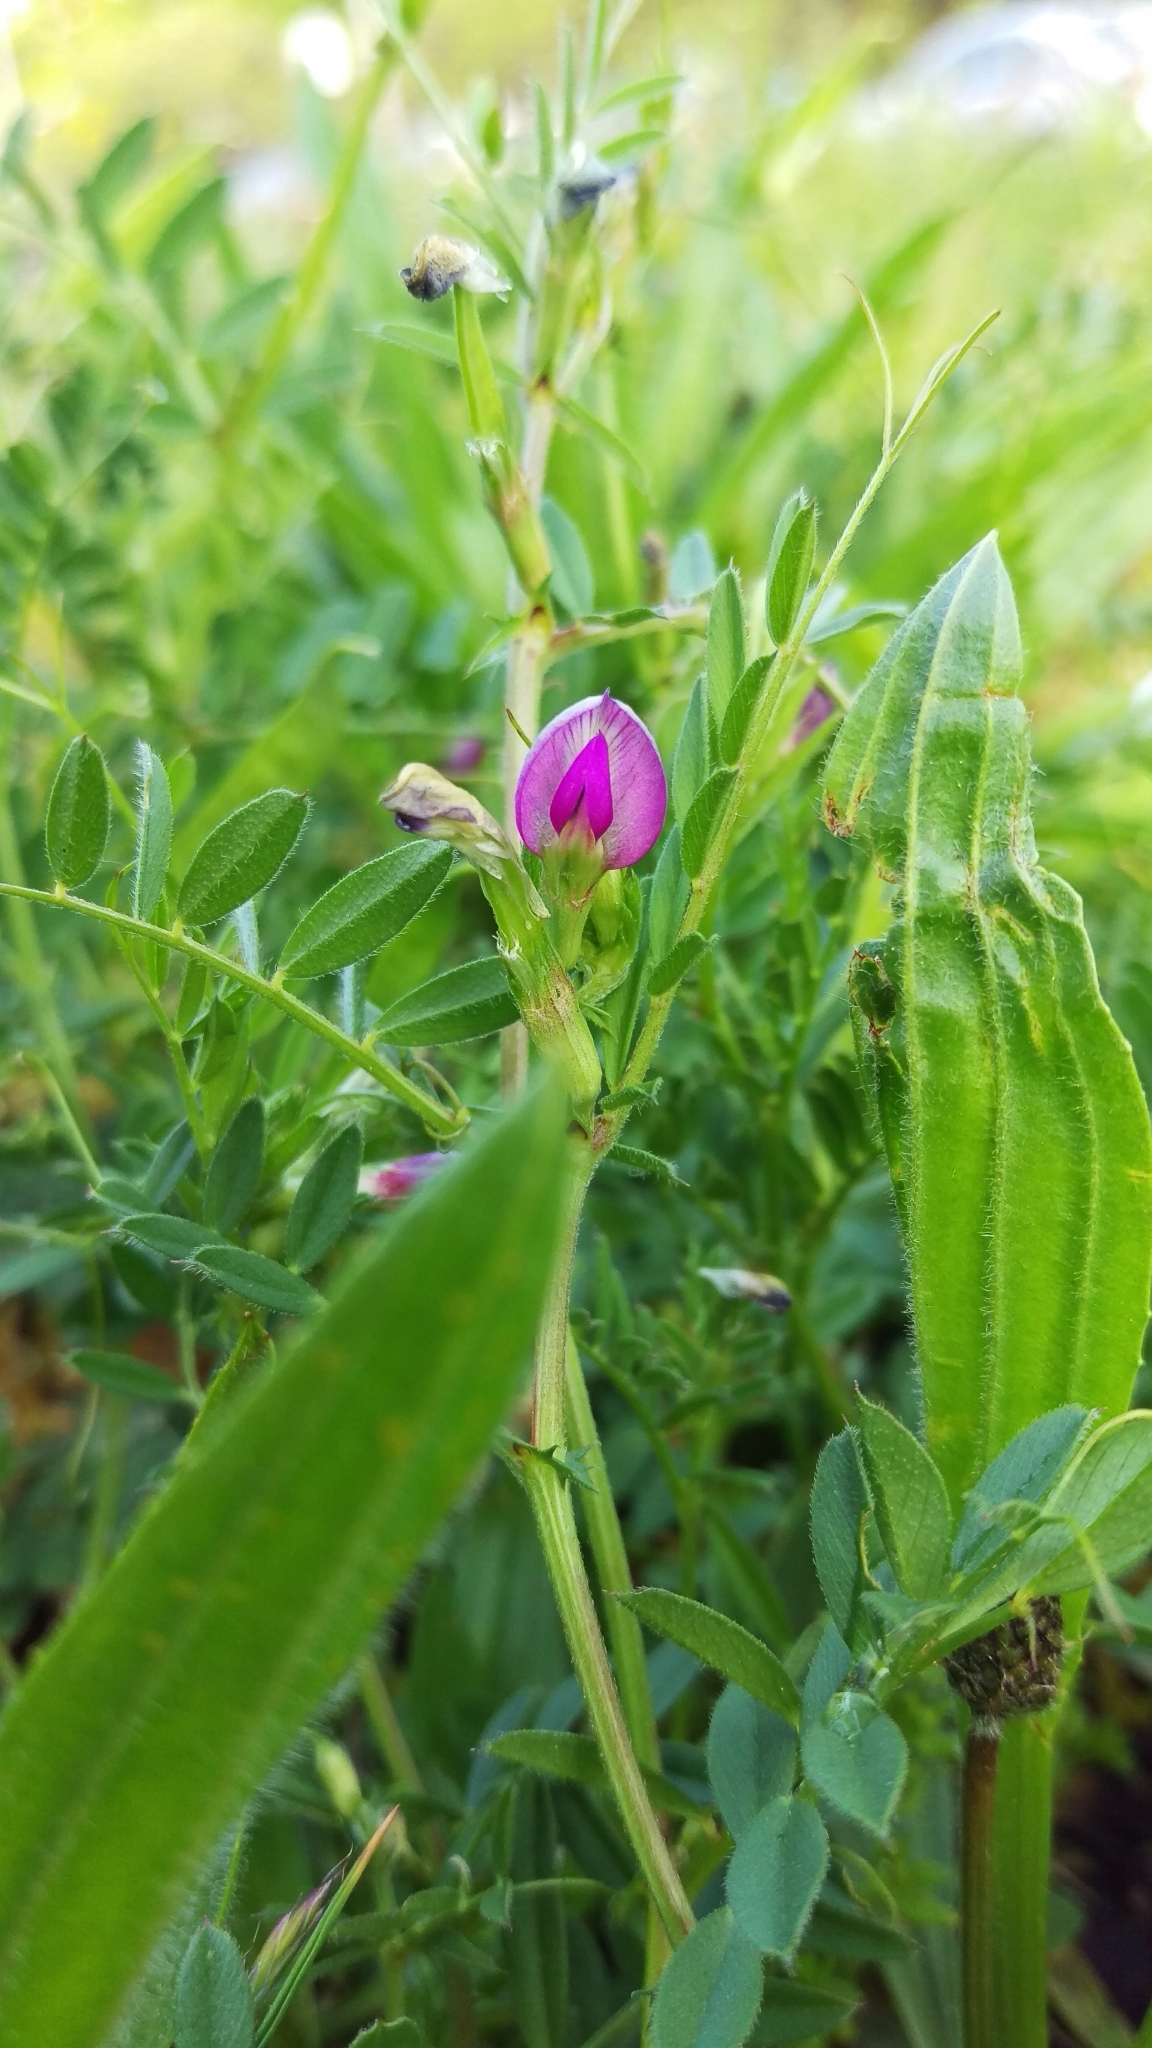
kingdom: Plantae
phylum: Tracheophyta
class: Magnoliopsida
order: Fabales
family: Fabaceae
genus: Vicia
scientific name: Vicia sativa
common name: Garden vetch
